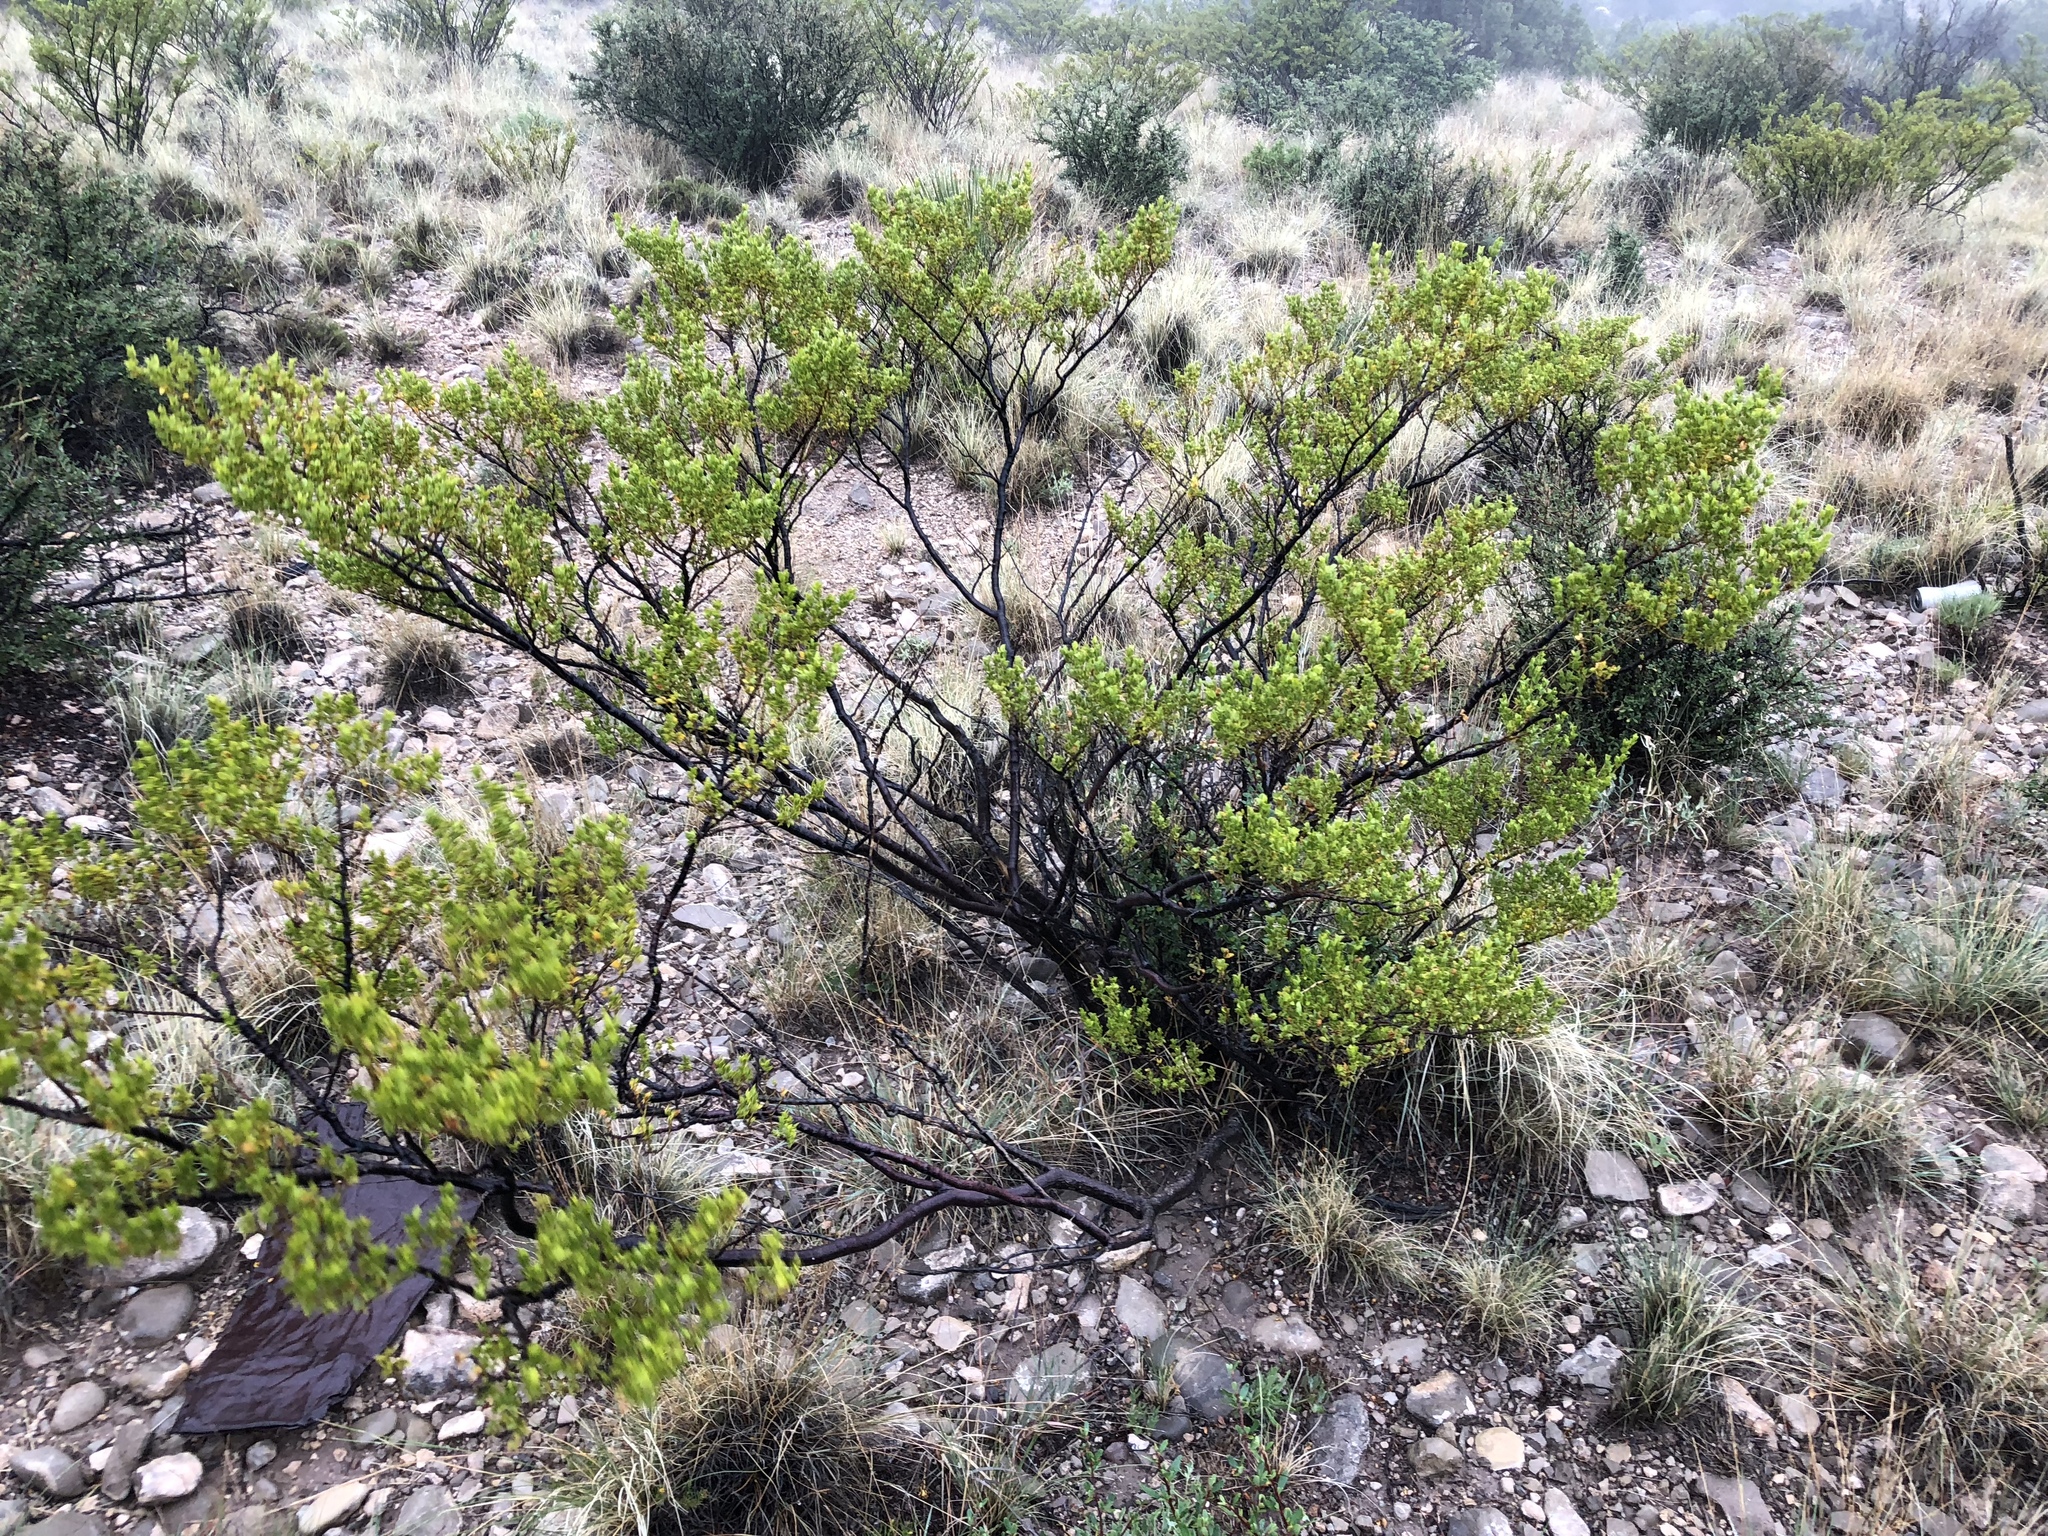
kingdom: Plantae
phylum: Tracheophyta
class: Magnoliopsida
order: Zygophyllales
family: Zygophyllaceae
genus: Larrea
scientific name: Larrea tridentata
